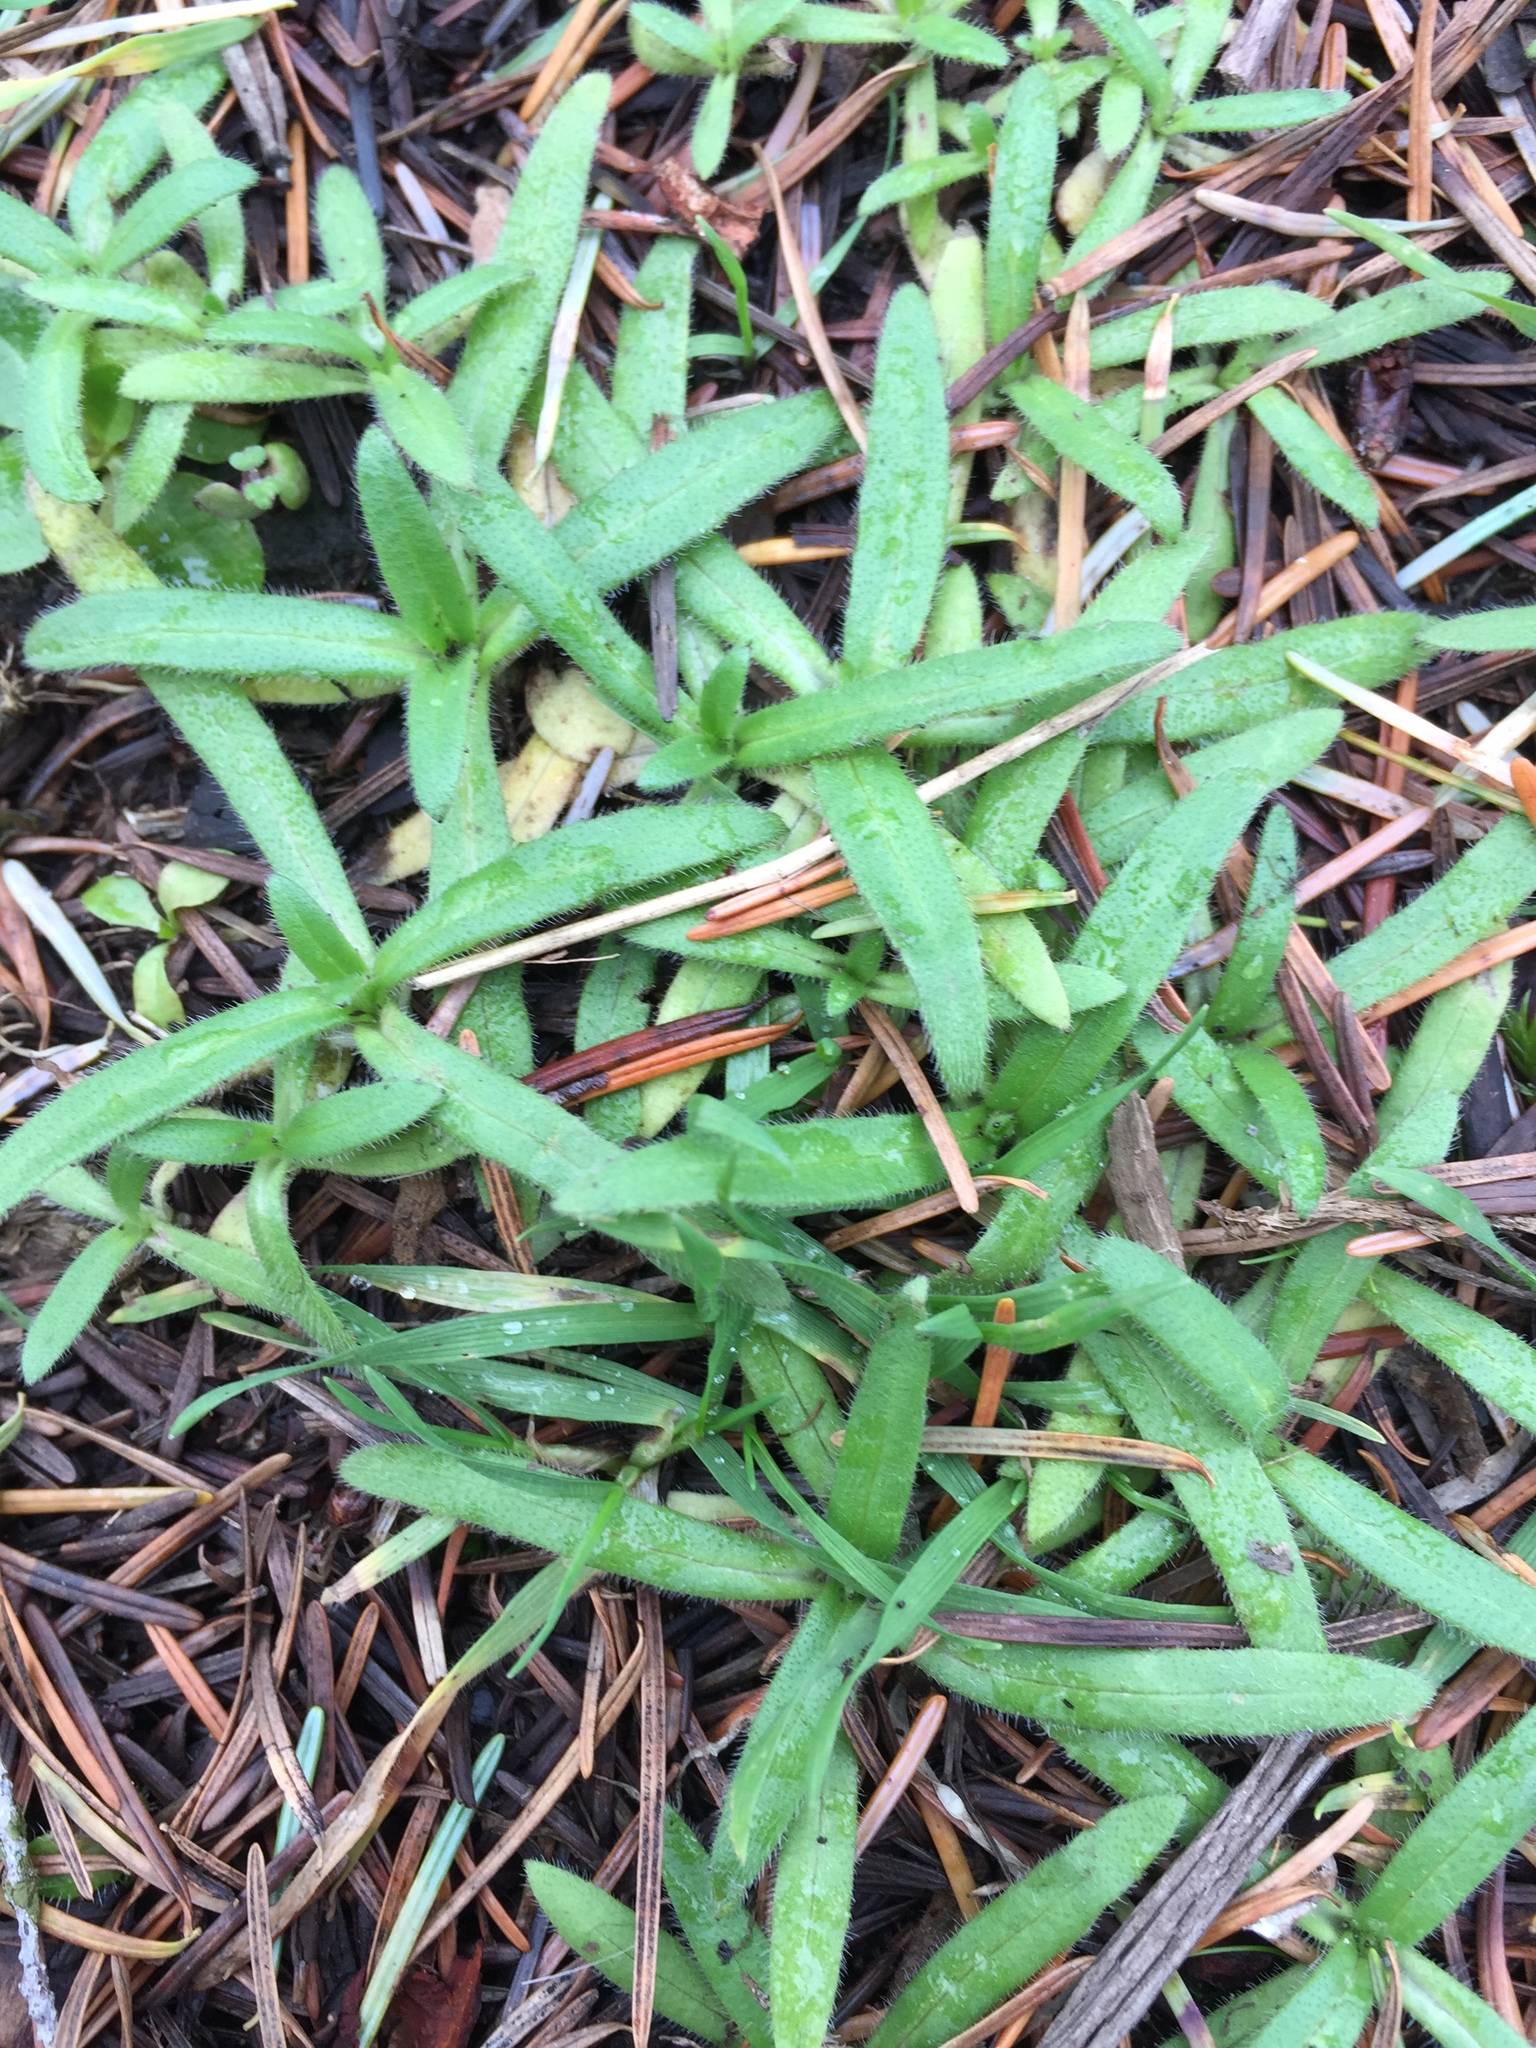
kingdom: Plantae
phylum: Tracheophyta
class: Magnoliopsida
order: Asterales
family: Asteraceae
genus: Anisocarpus
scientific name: Anisocarpus madioides
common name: Woodland madia
